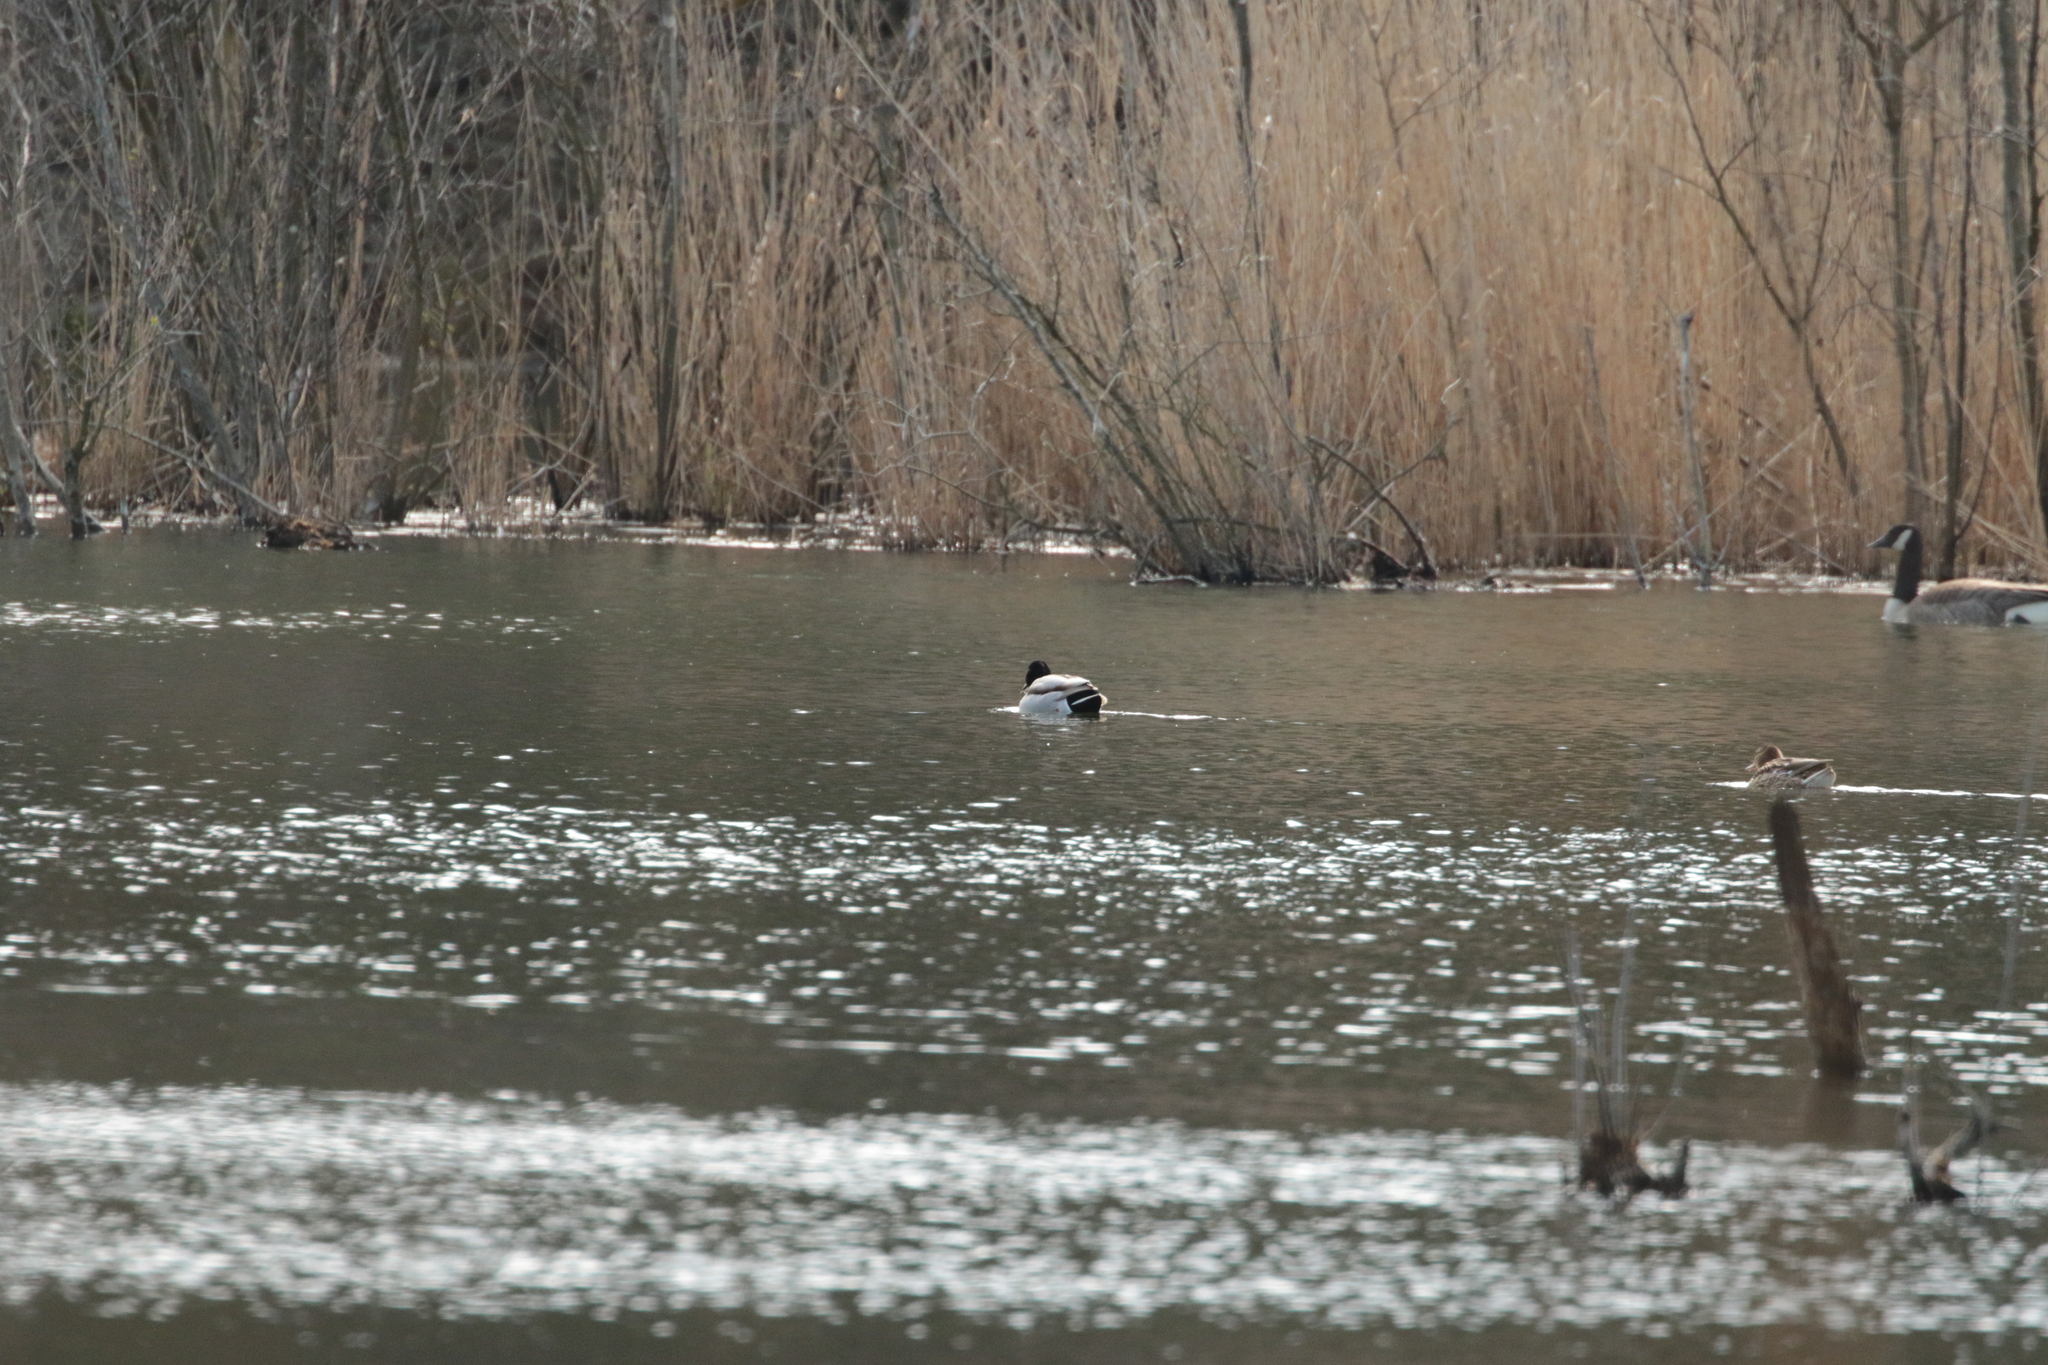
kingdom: Animalia
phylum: Chordata
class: Aves
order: Anseriformes
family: Anatidae
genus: Anas
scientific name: Anas platyrhynchos
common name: Mallard
